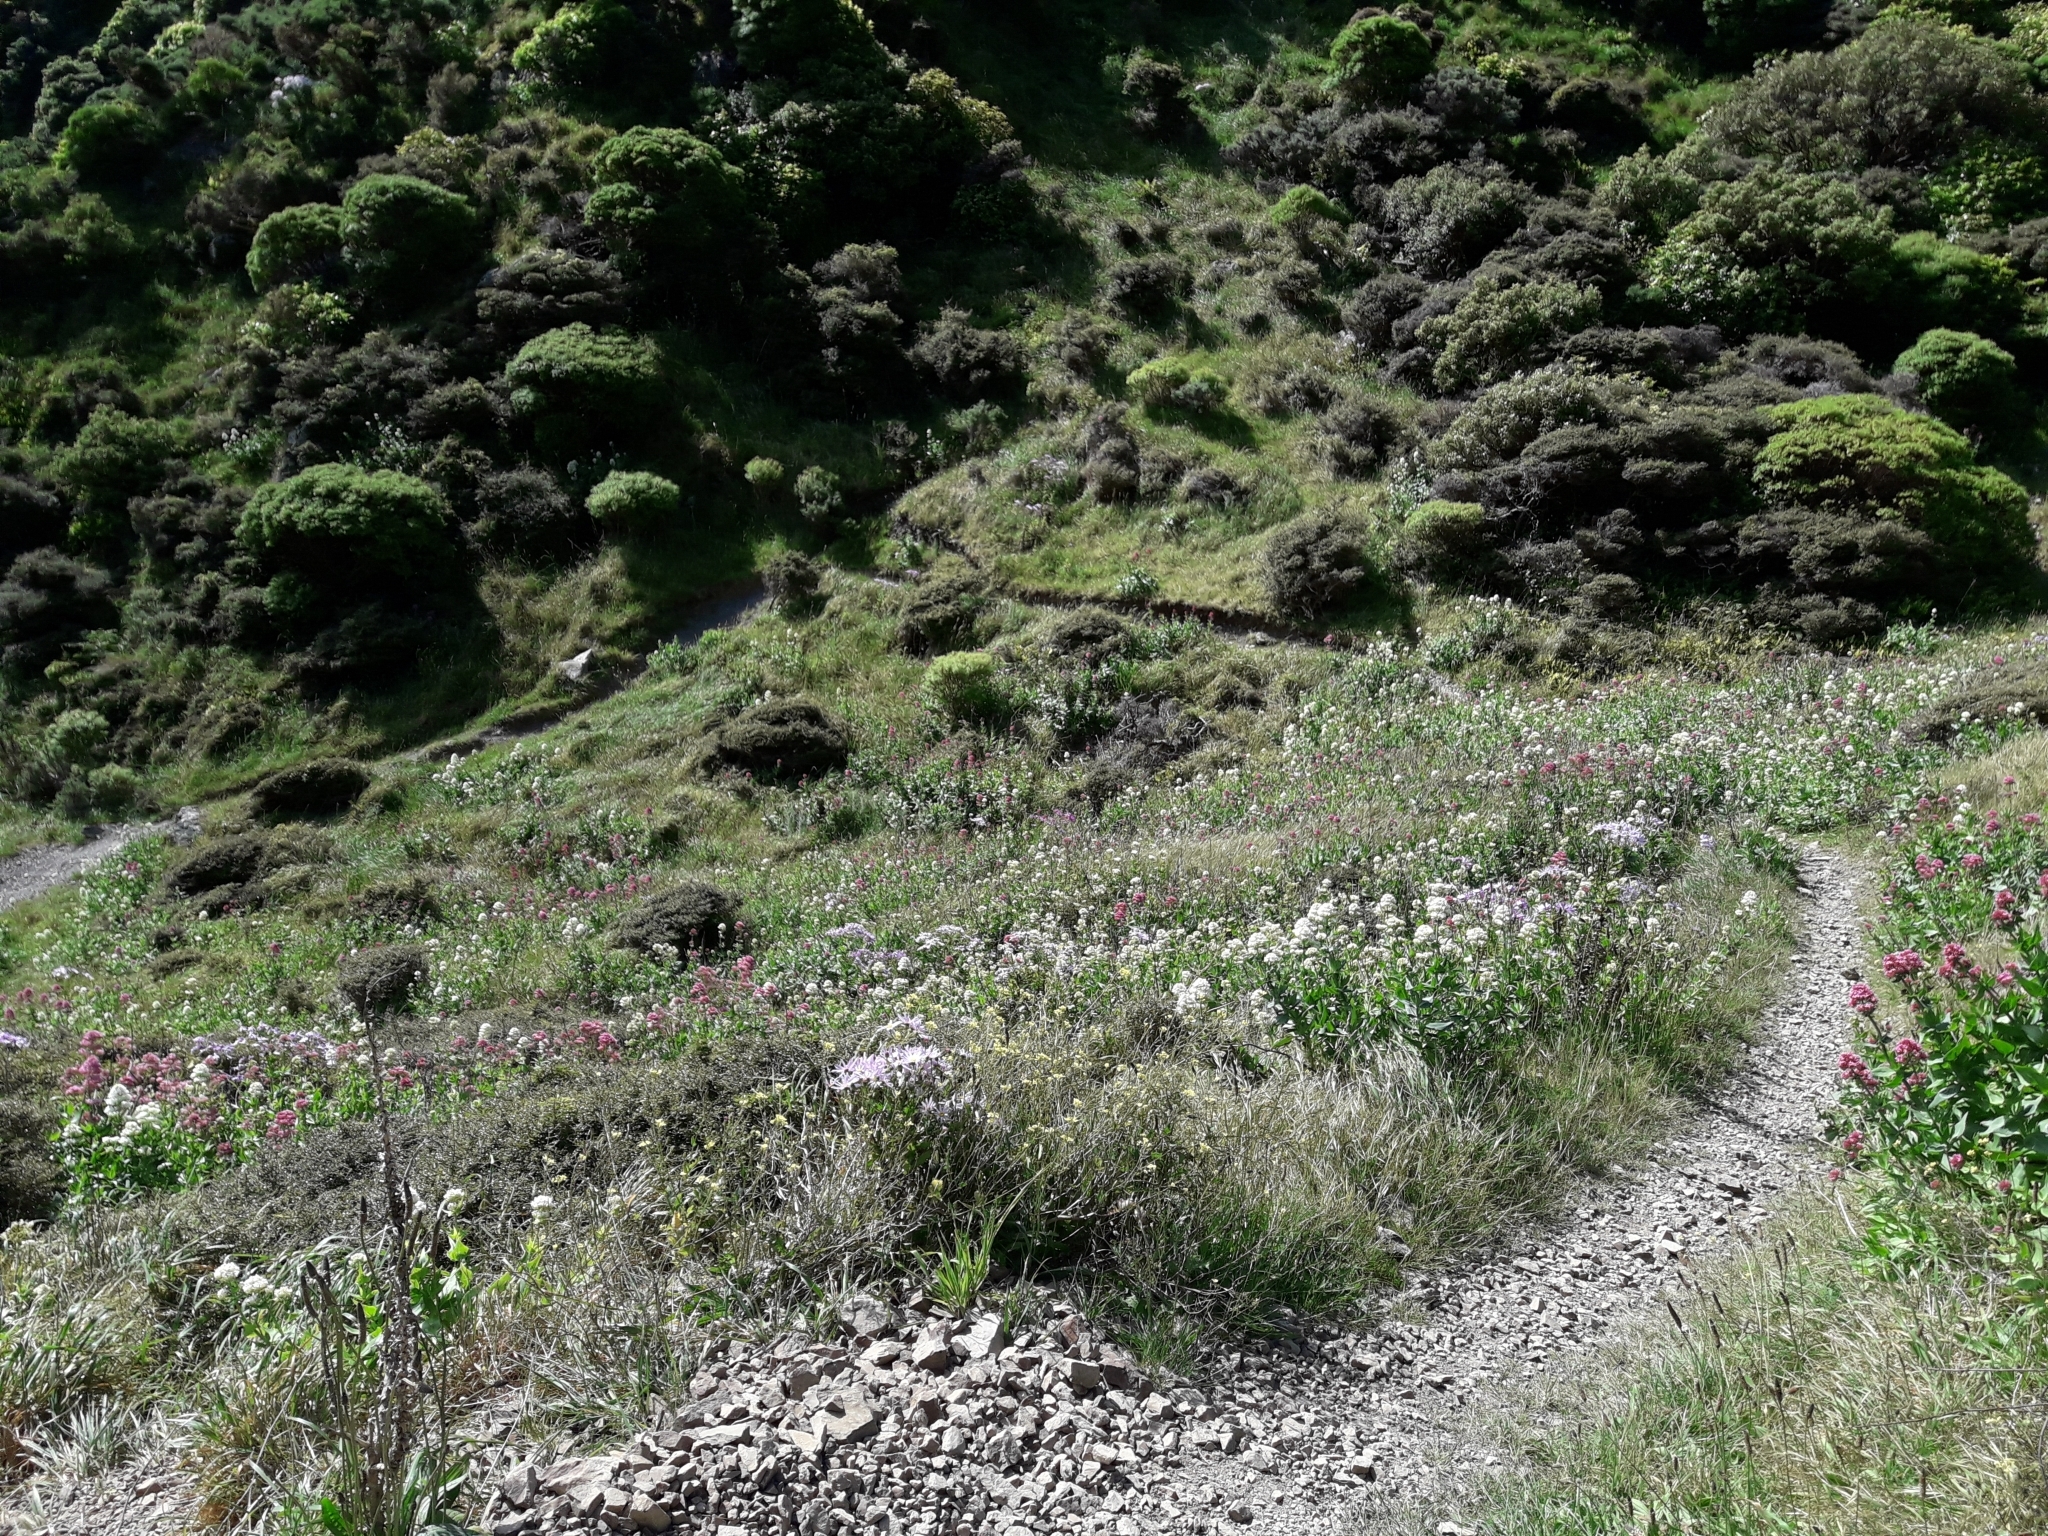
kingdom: Plantae
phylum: Tracheophyta
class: Magnoliopsida
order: Dipsacales
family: Caprifoliaceae
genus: Centranthus
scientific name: Centranthus ruber
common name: Red valerian
